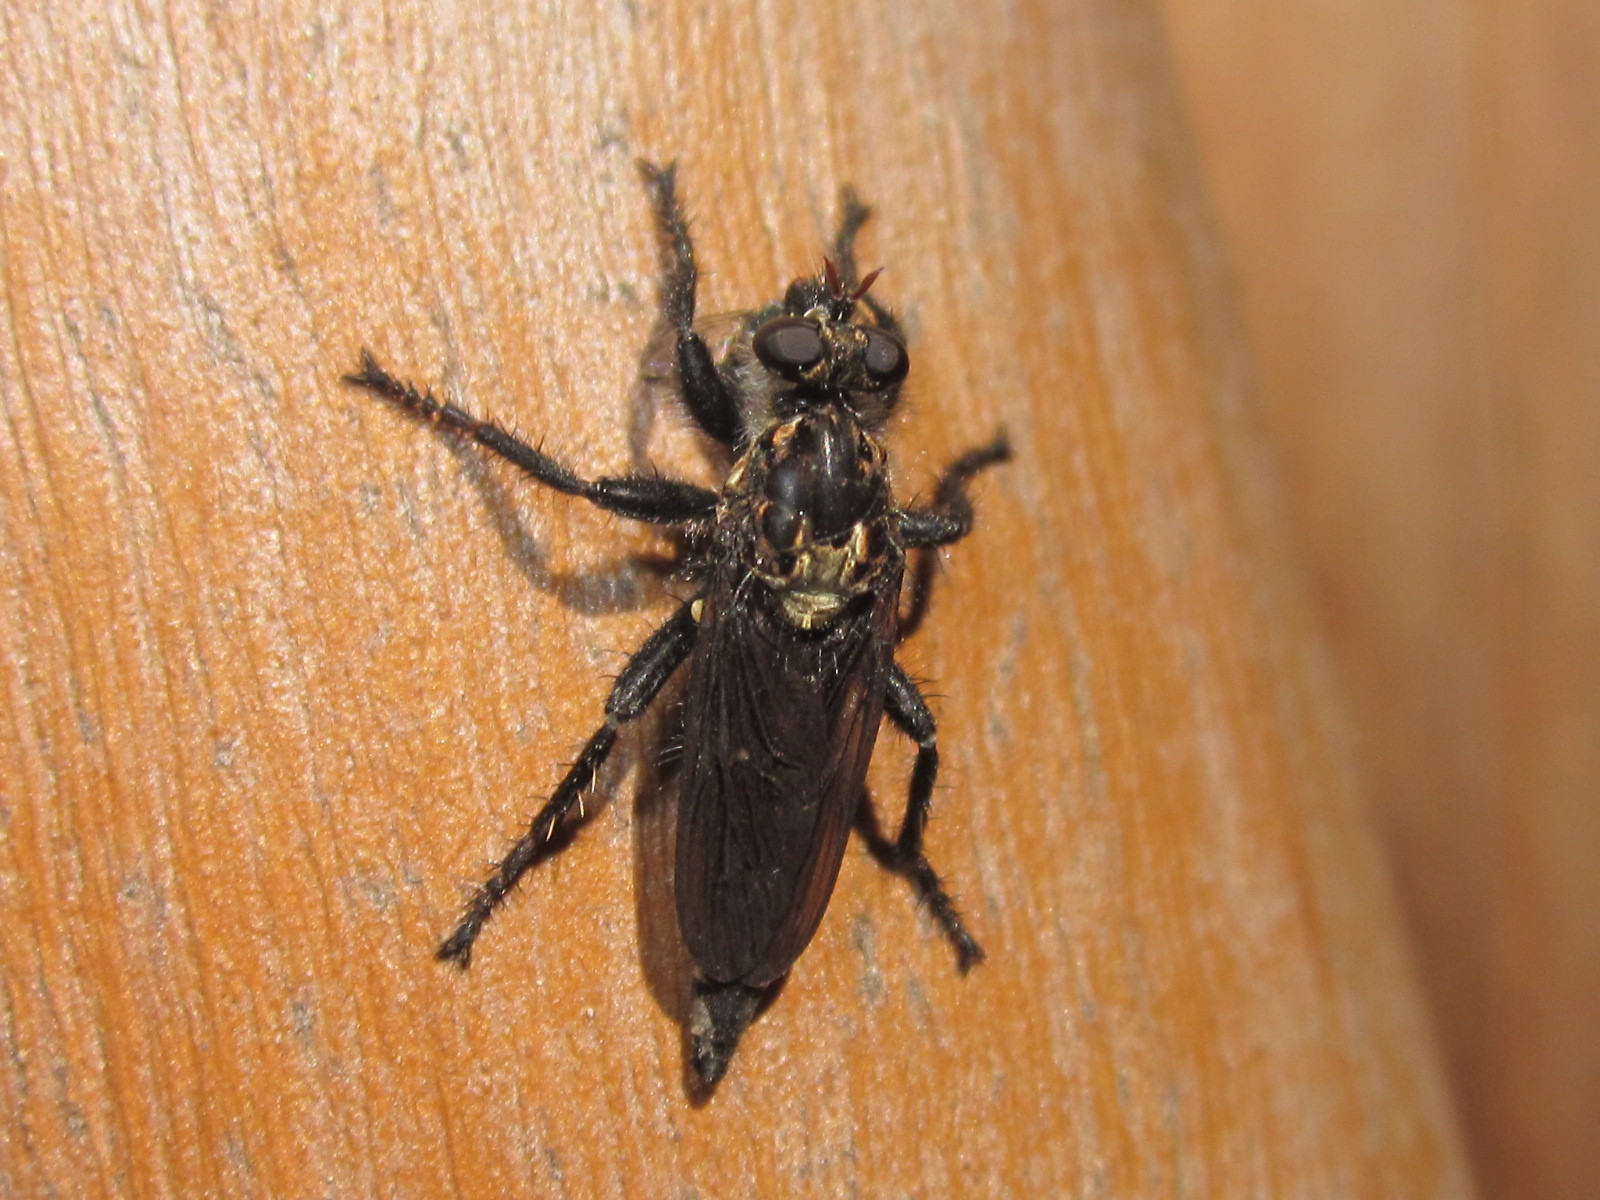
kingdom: Animalia
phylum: Arthropoda
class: Insecta
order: Diptera
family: Asilidae
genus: Pritchardia
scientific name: Pritchardia hirtipes
